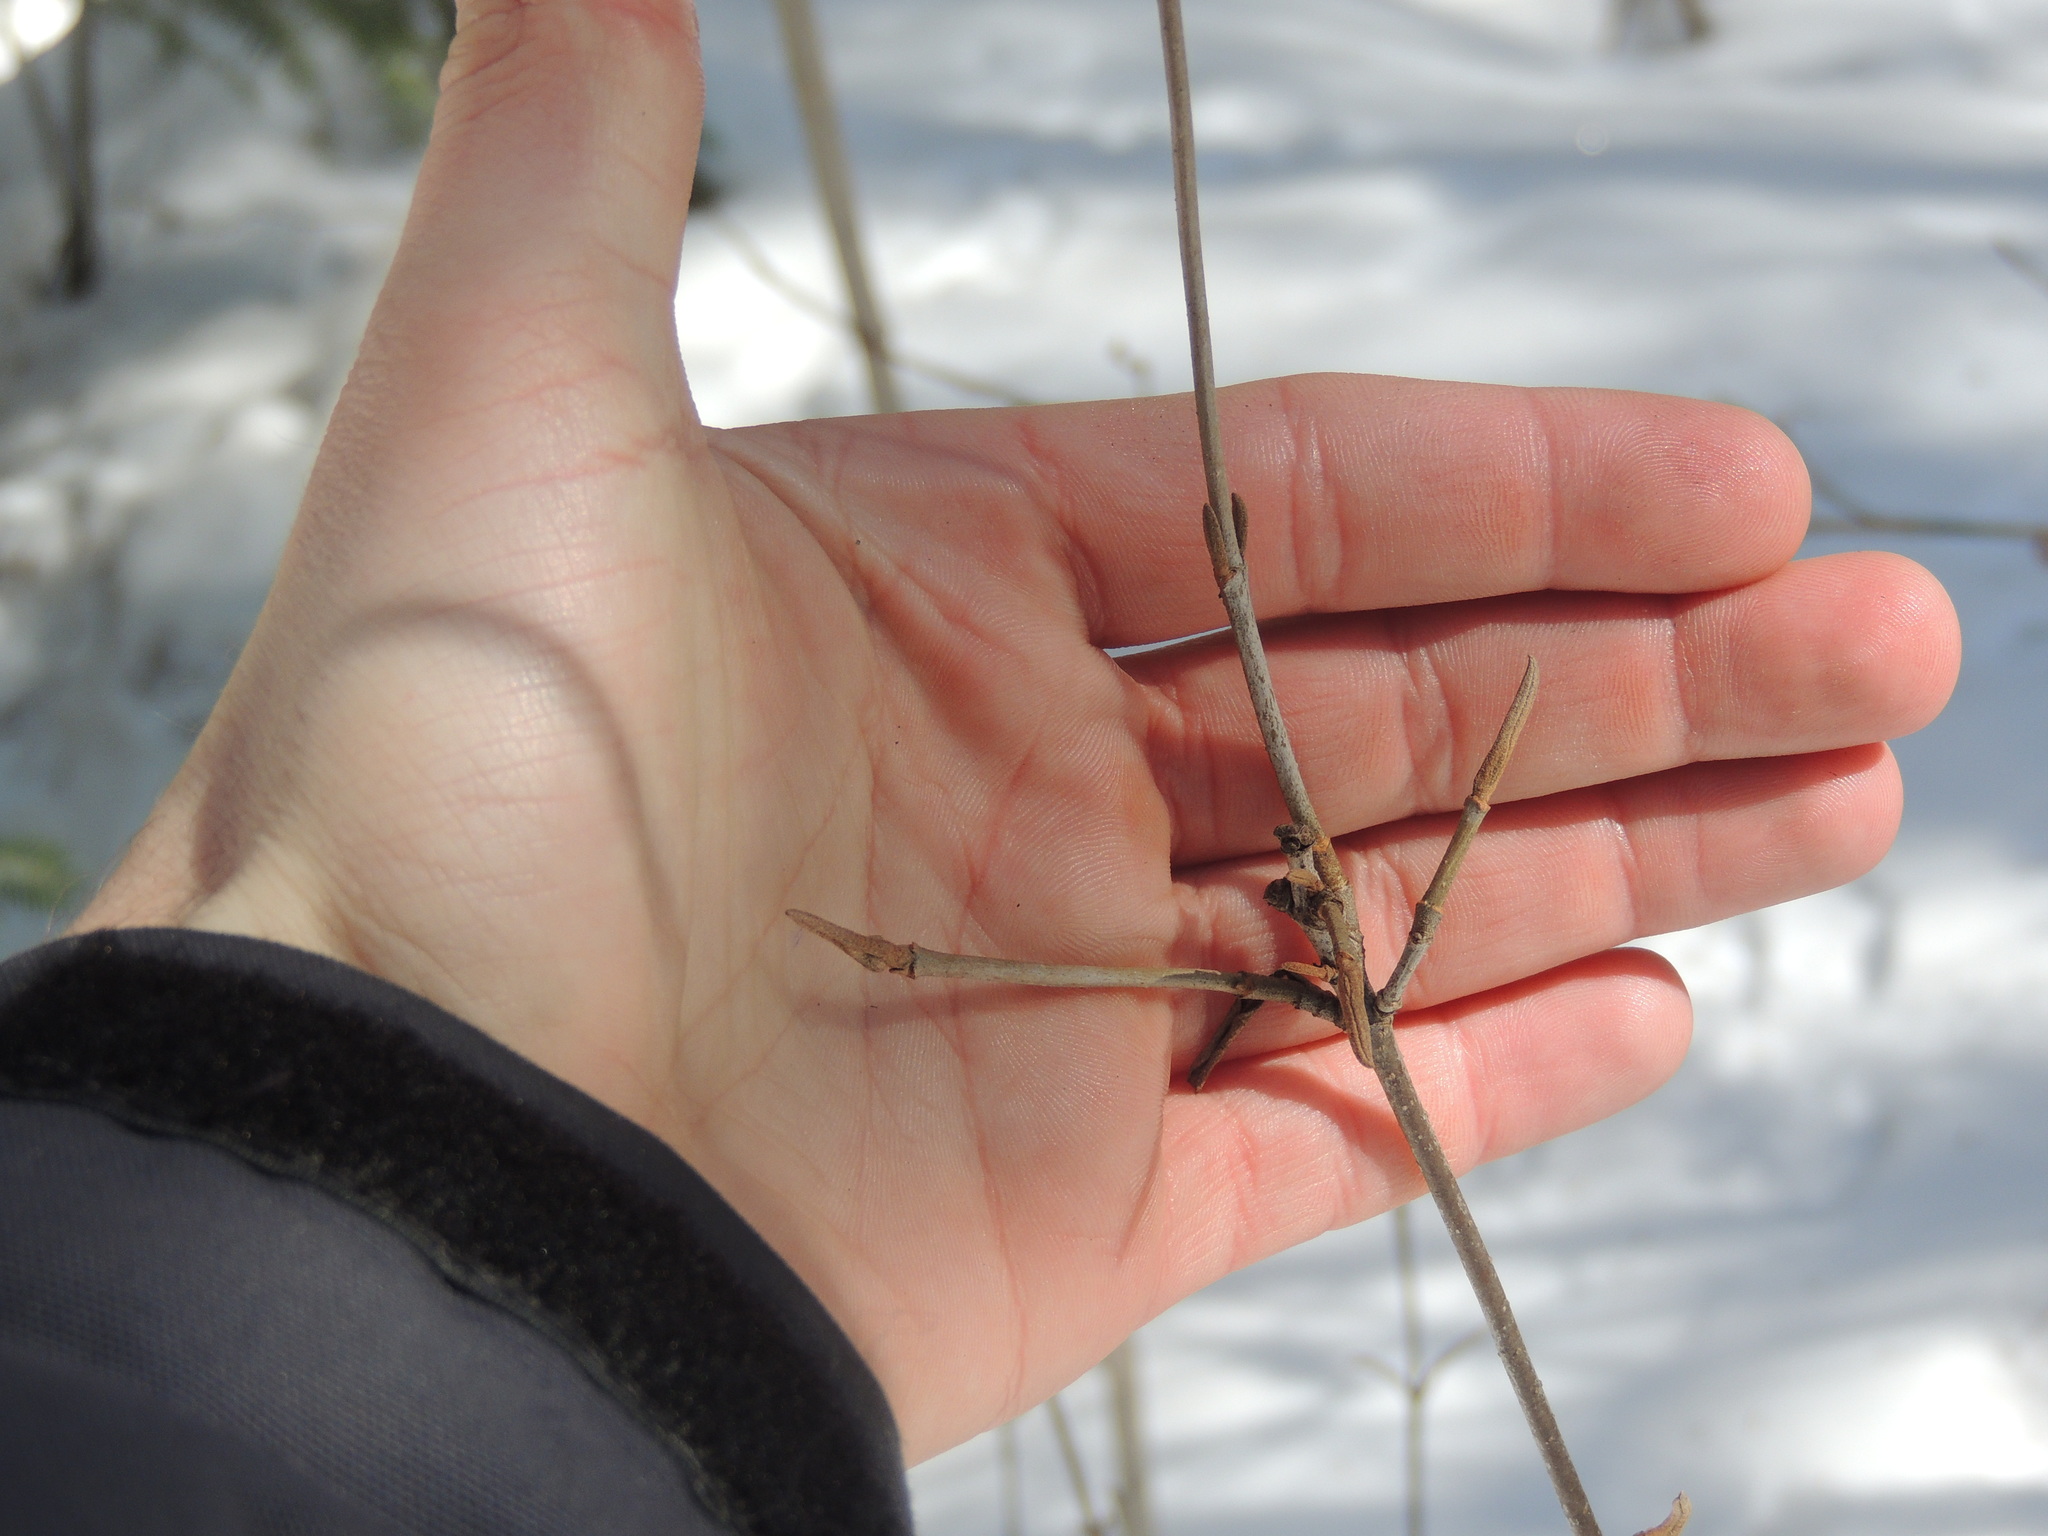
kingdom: Plantae
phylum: Tracheophyta
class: Magnoliopsida
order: Dipsacales
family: Viburnaceae
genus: Viburnum
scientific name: Viburnum cassinoides
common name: Swamp haw
